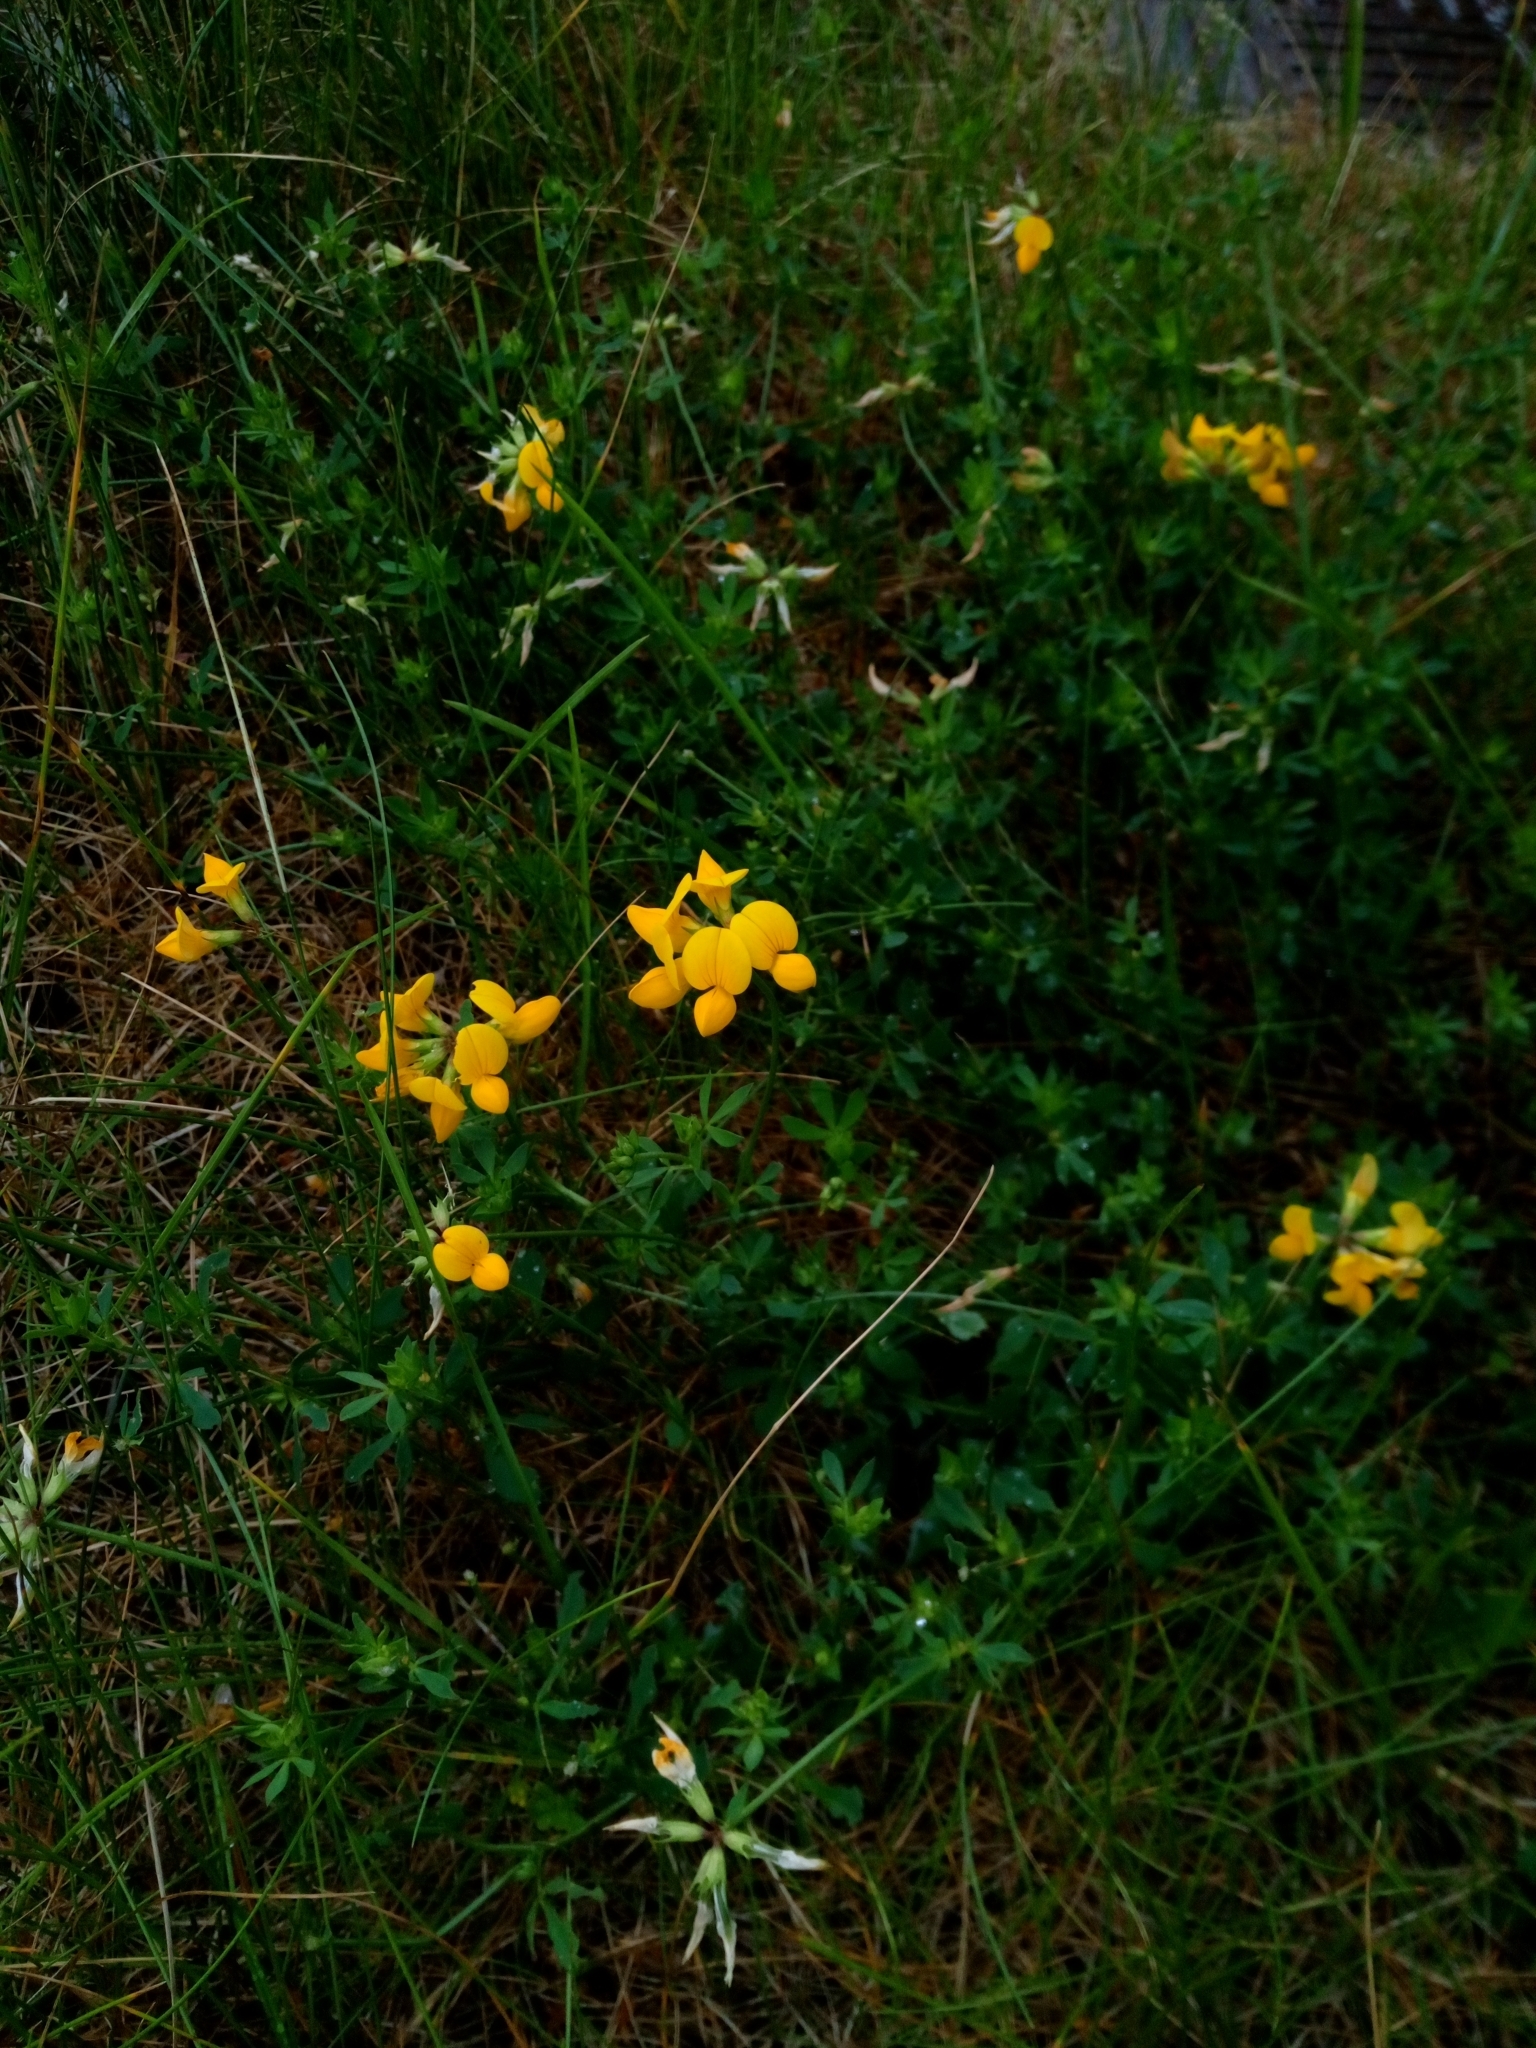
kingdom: Plantae
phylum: Tracheophyta
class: Magnoliopsida
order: Fabales
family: Fabaceae
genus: Lotus
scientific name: Lotus corniculatus
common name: Common bird's-foot-trefoil
